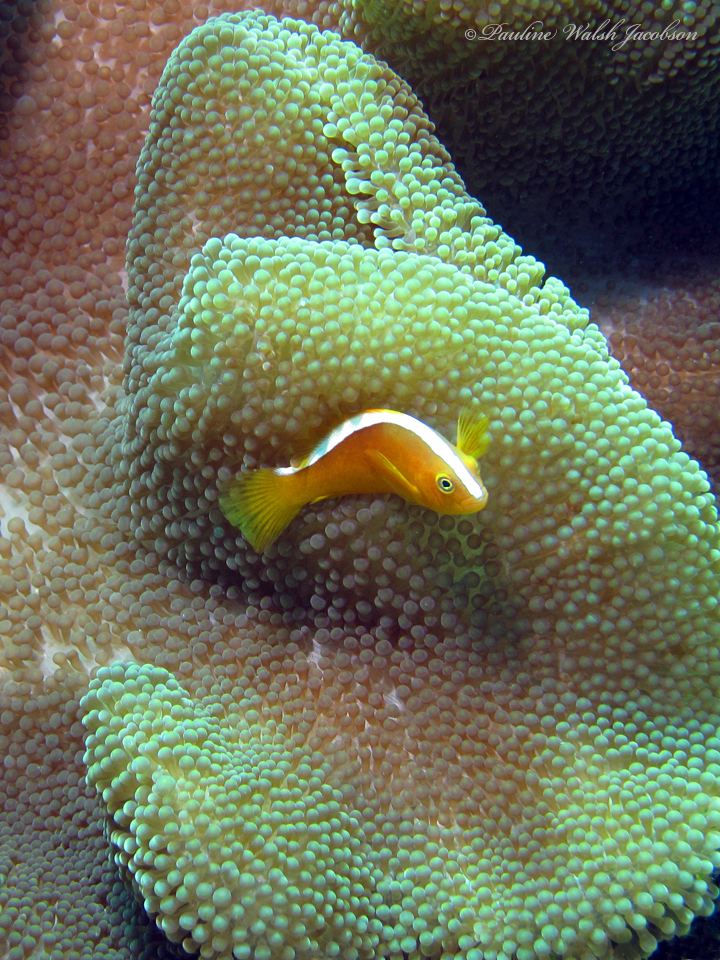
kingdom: Animalia
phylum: Chordata
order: Perciformes
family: Pomacentridae
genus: Amphiprion
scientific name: Amphiprion sandaracinos
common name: Orange anemonefish
